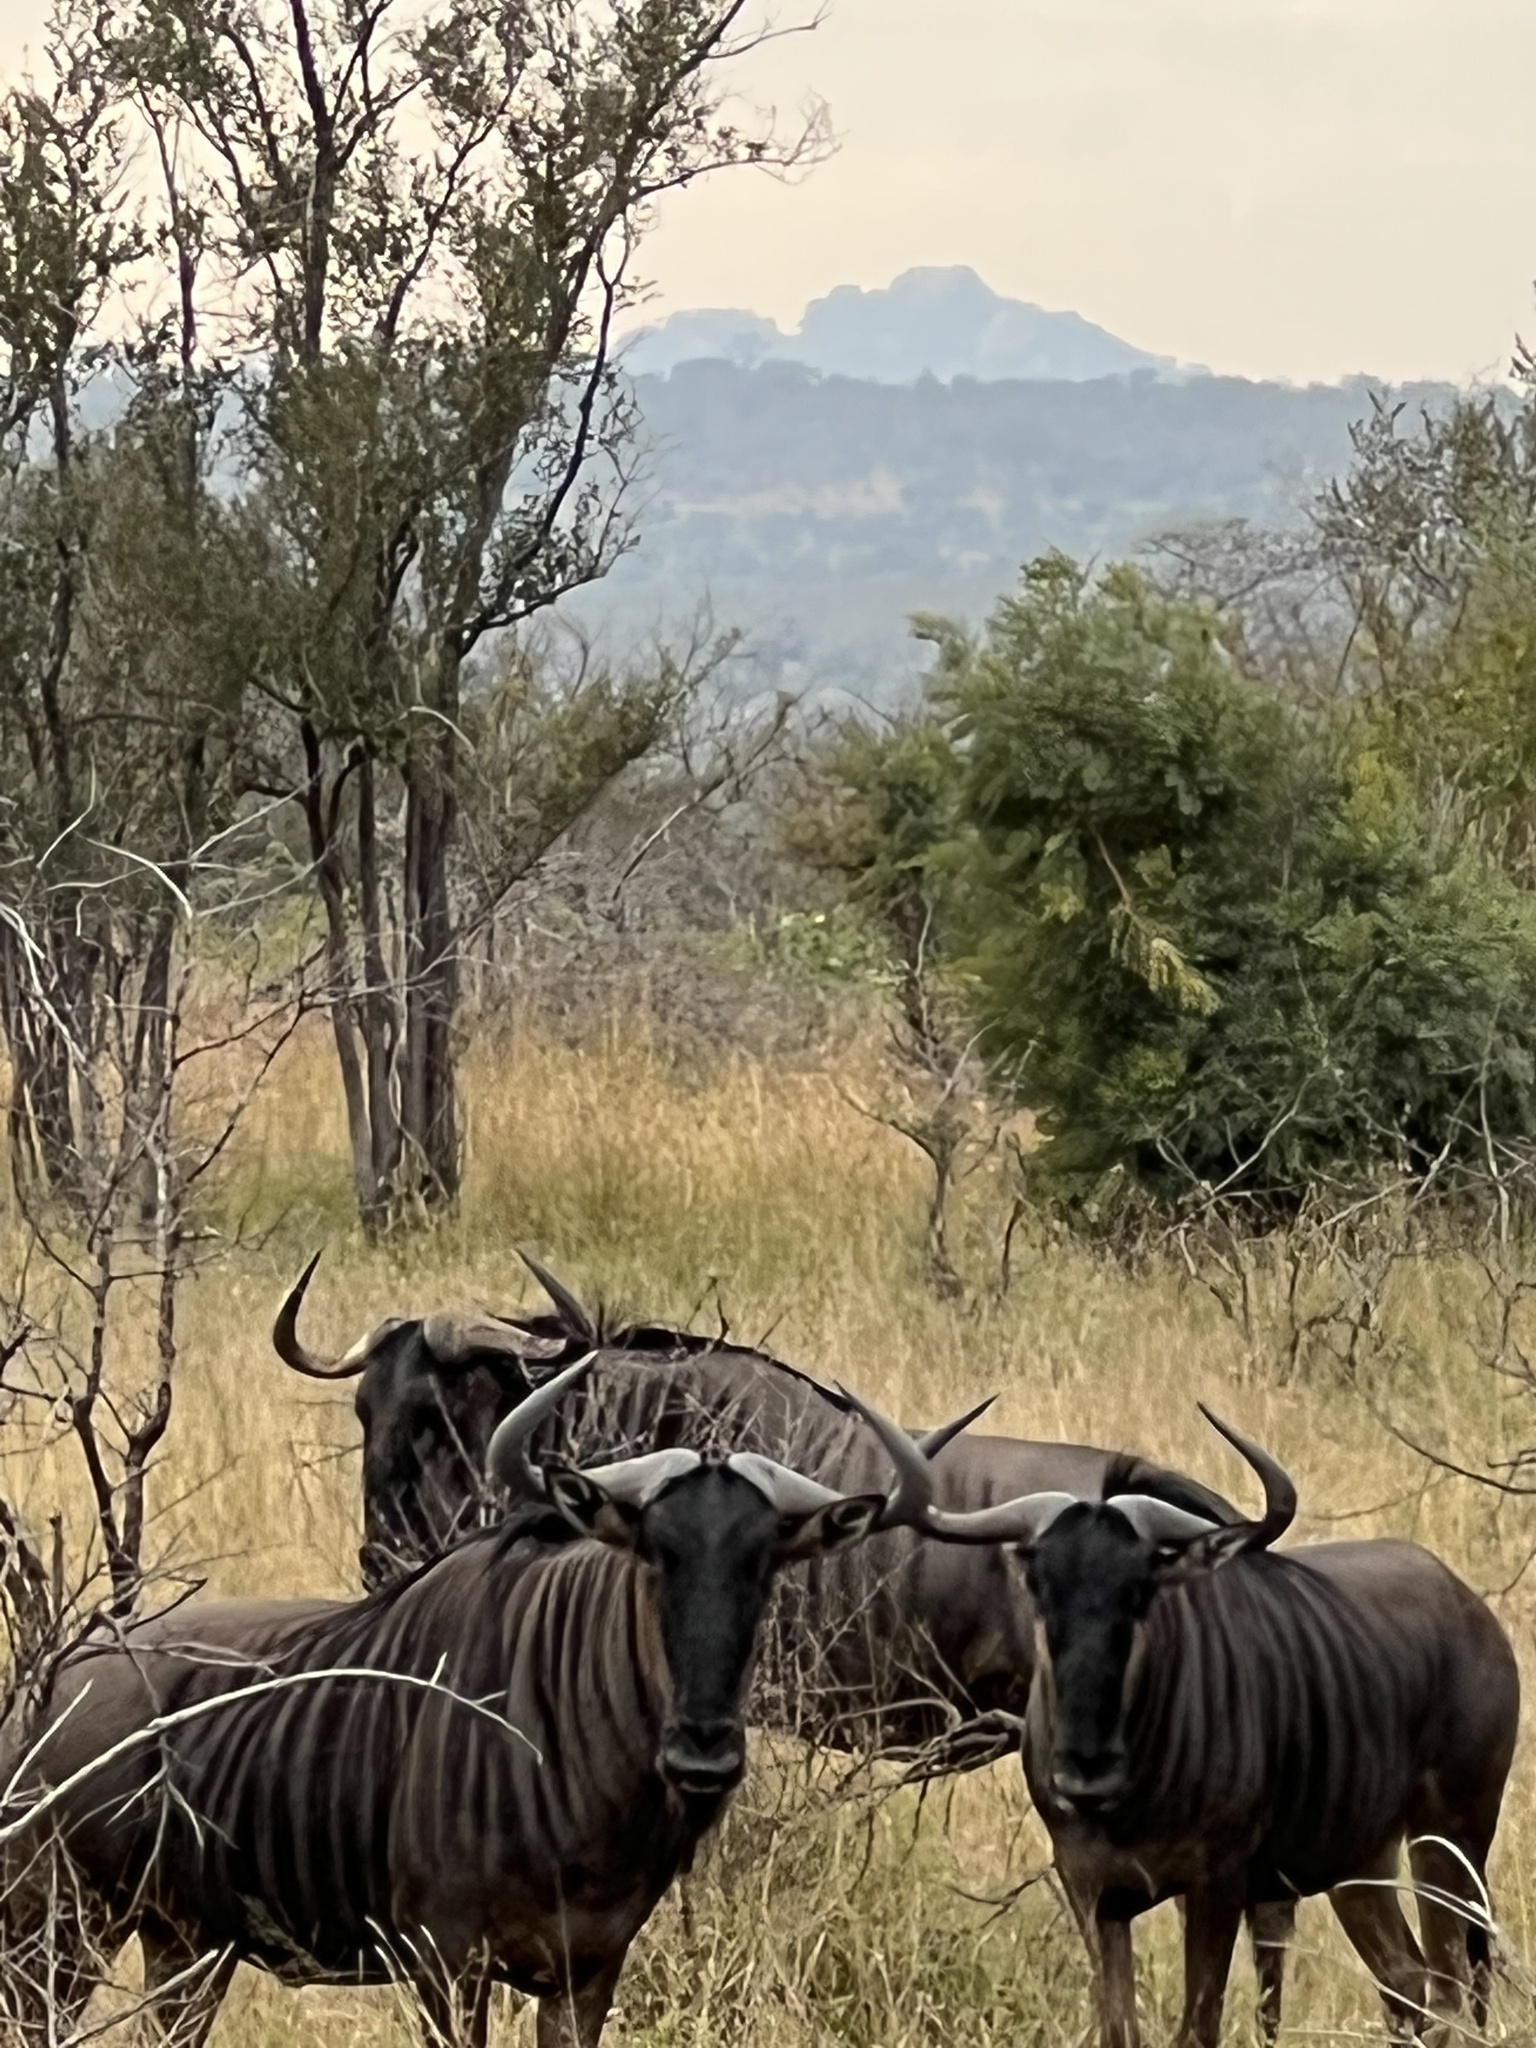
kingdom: Animalia
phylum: Chordata
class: Mammalia
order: Artiodactyla
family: Bovidae
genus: Connochaetes
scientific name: Connochaetes taurinus
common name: Blue wildebeest
